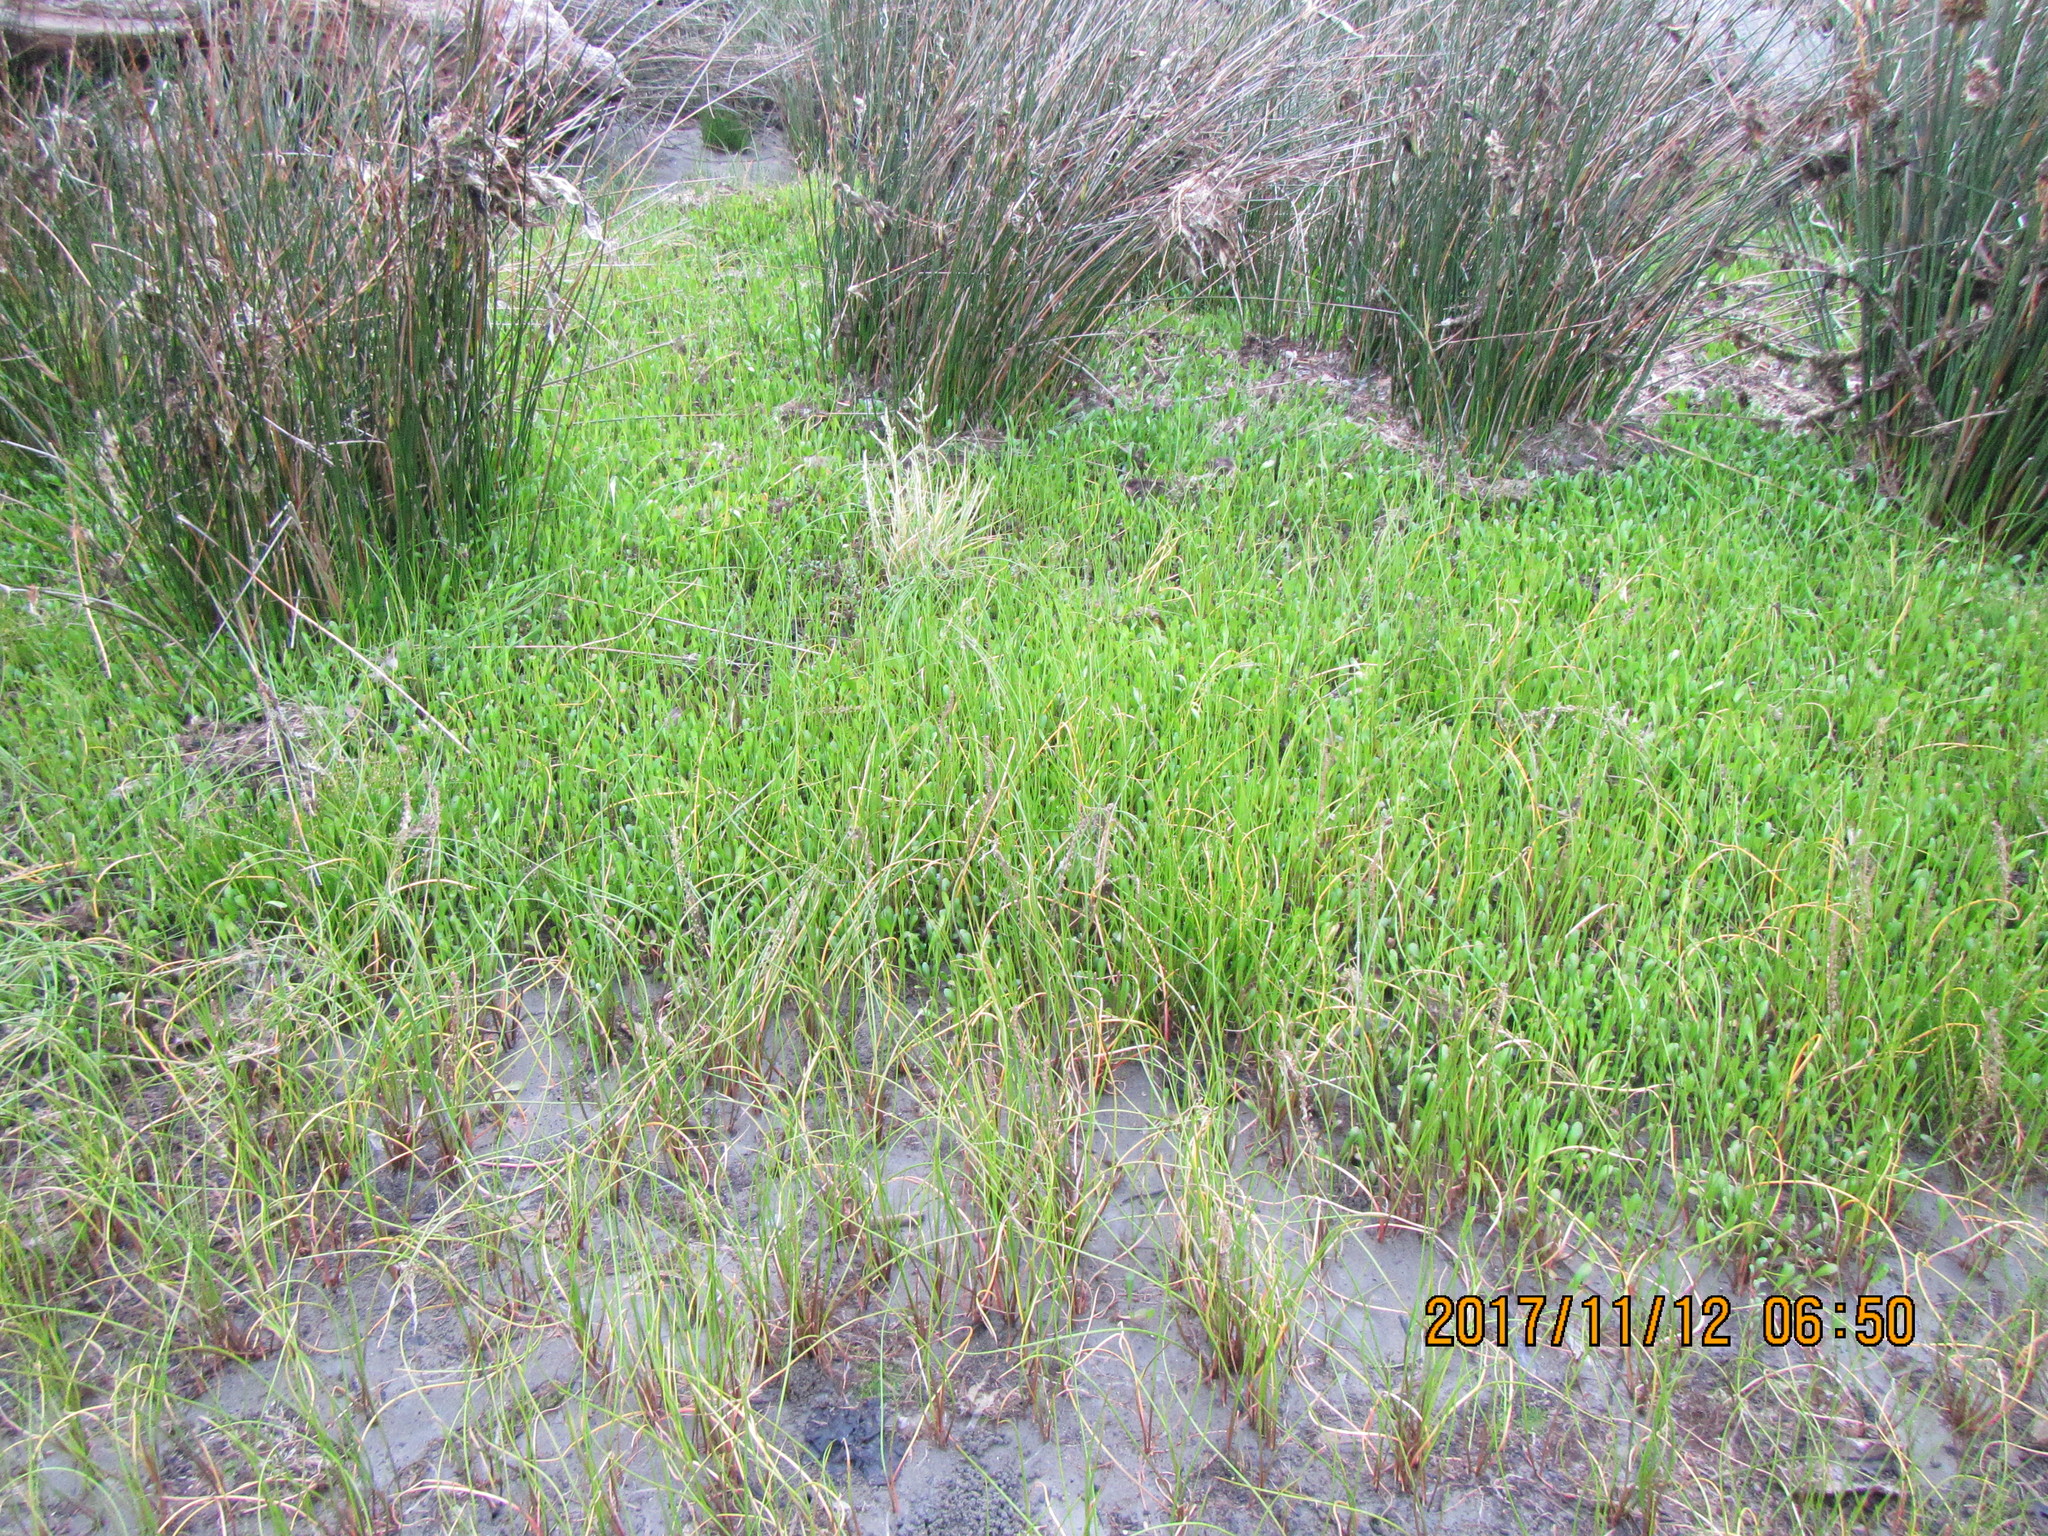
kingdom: Plantae
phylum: Tracheophyta
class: Magnoliopsida
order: Asterales
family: Goodeniaceae
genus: Goodenia
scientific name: Goodenia radicans
